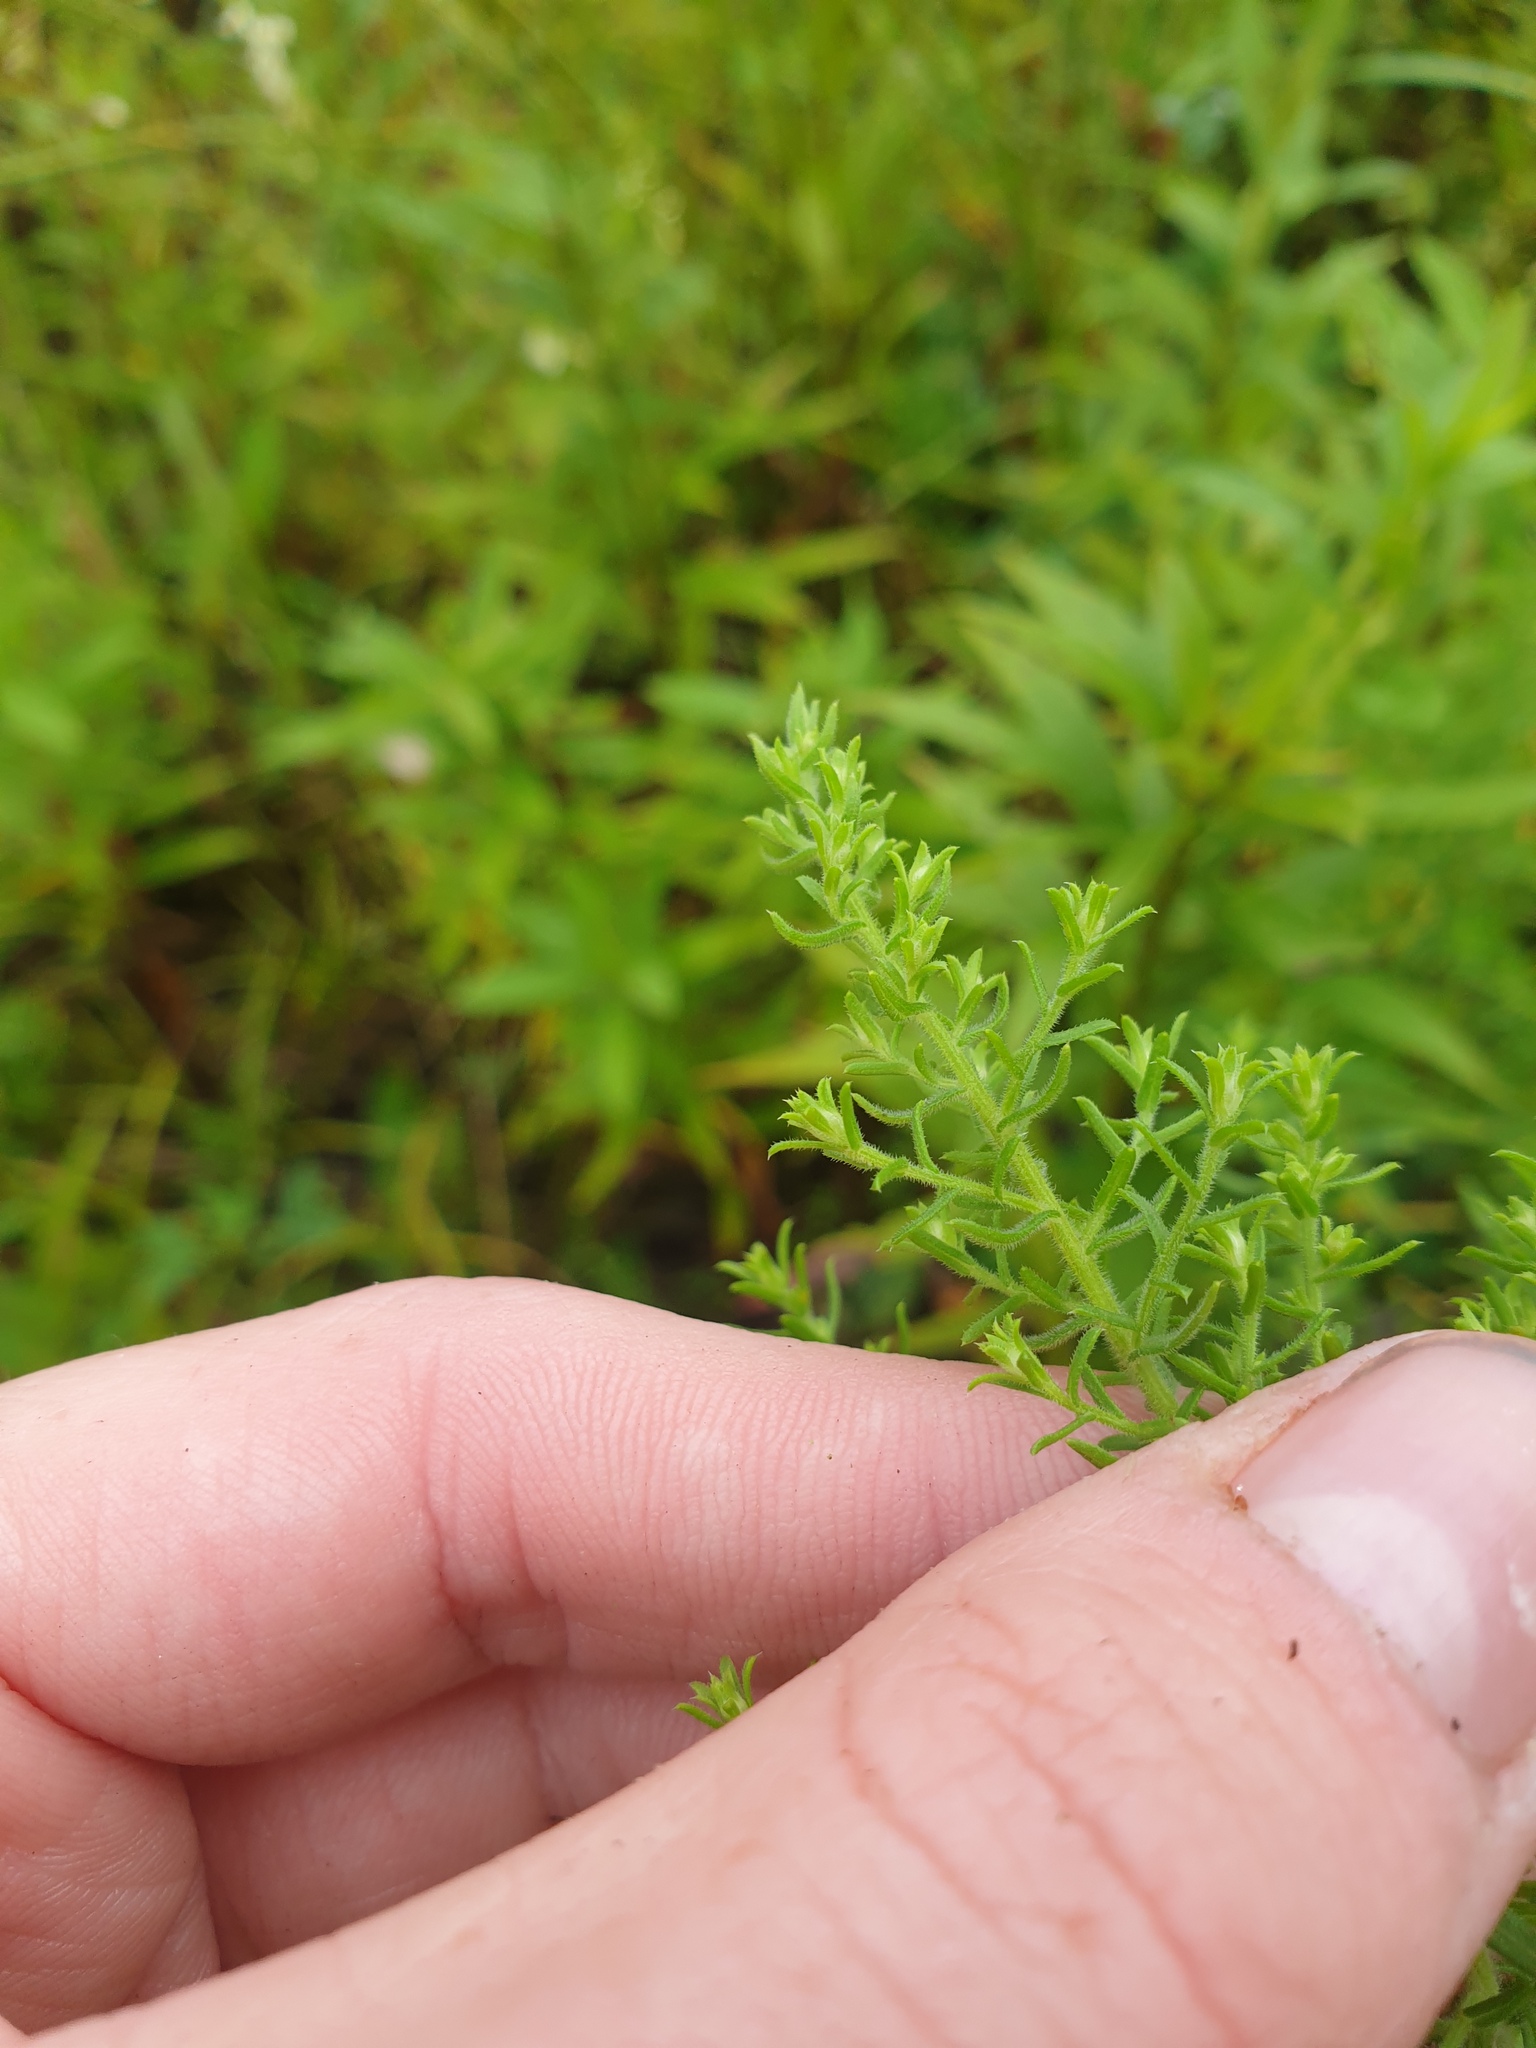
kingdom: Plantae
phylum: Tracheophyta
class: Magnoliopsida
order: Asterales
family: Asteraceae
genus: Symphyotrichum
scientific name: Symphyotrichum ericoides
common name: Heath aster
